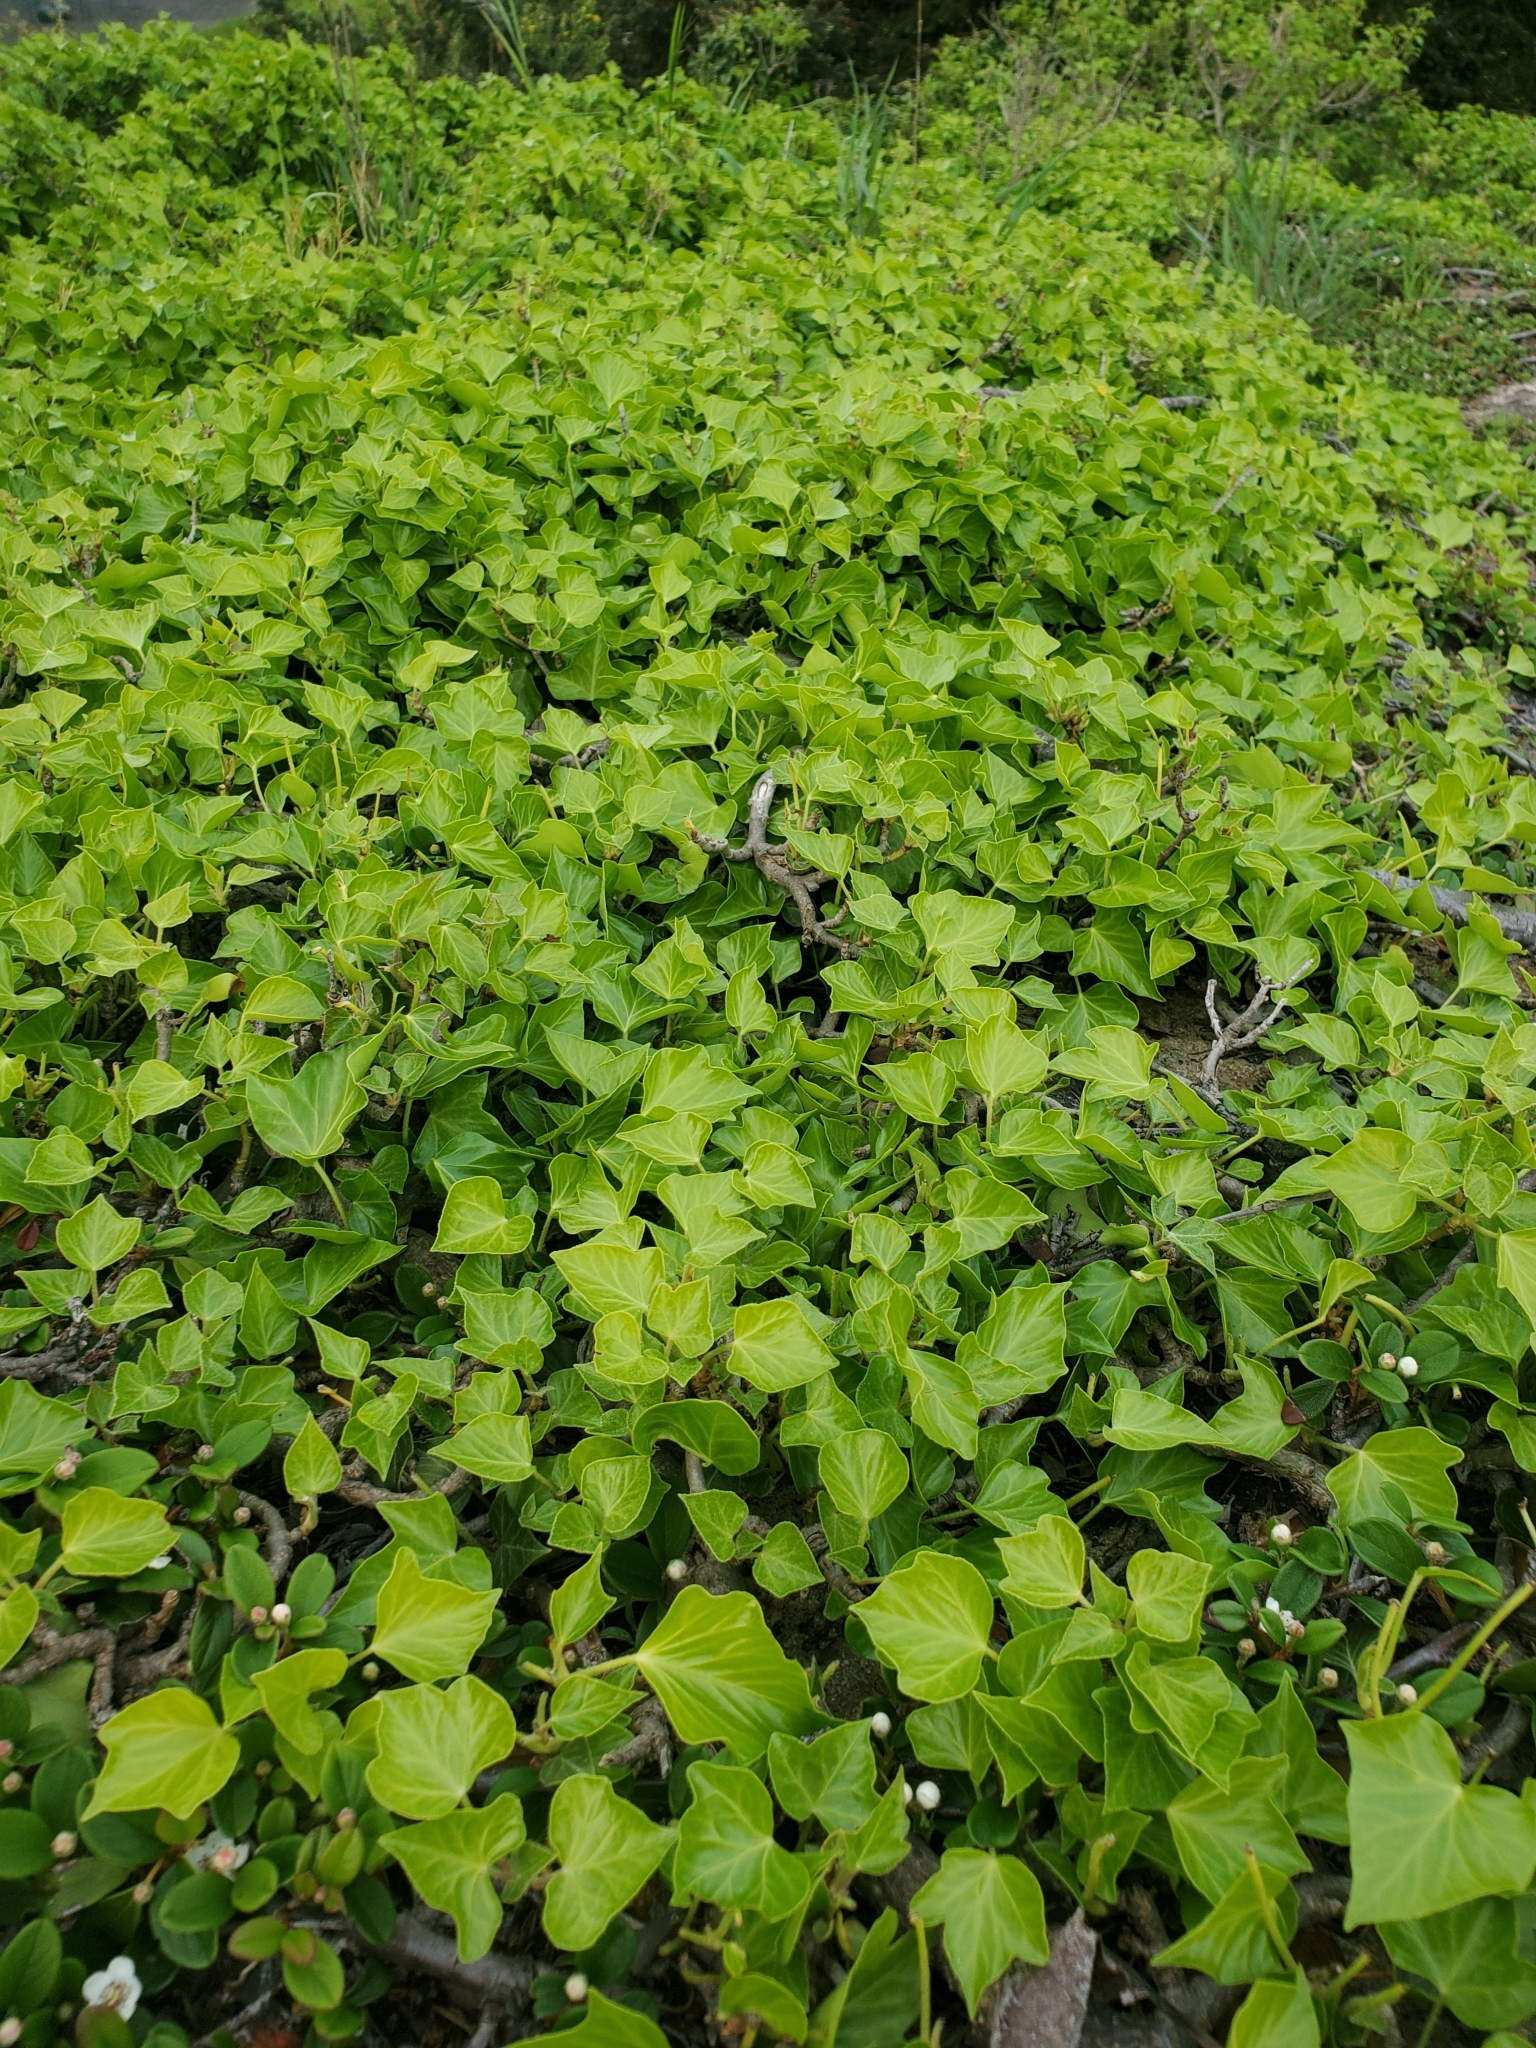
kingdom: Plantae
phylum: Tracheophyta
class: Magnoliopsida
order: Apiales
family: Araliaceae
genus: Hedera
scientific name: Hedera helix
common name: Ivy
